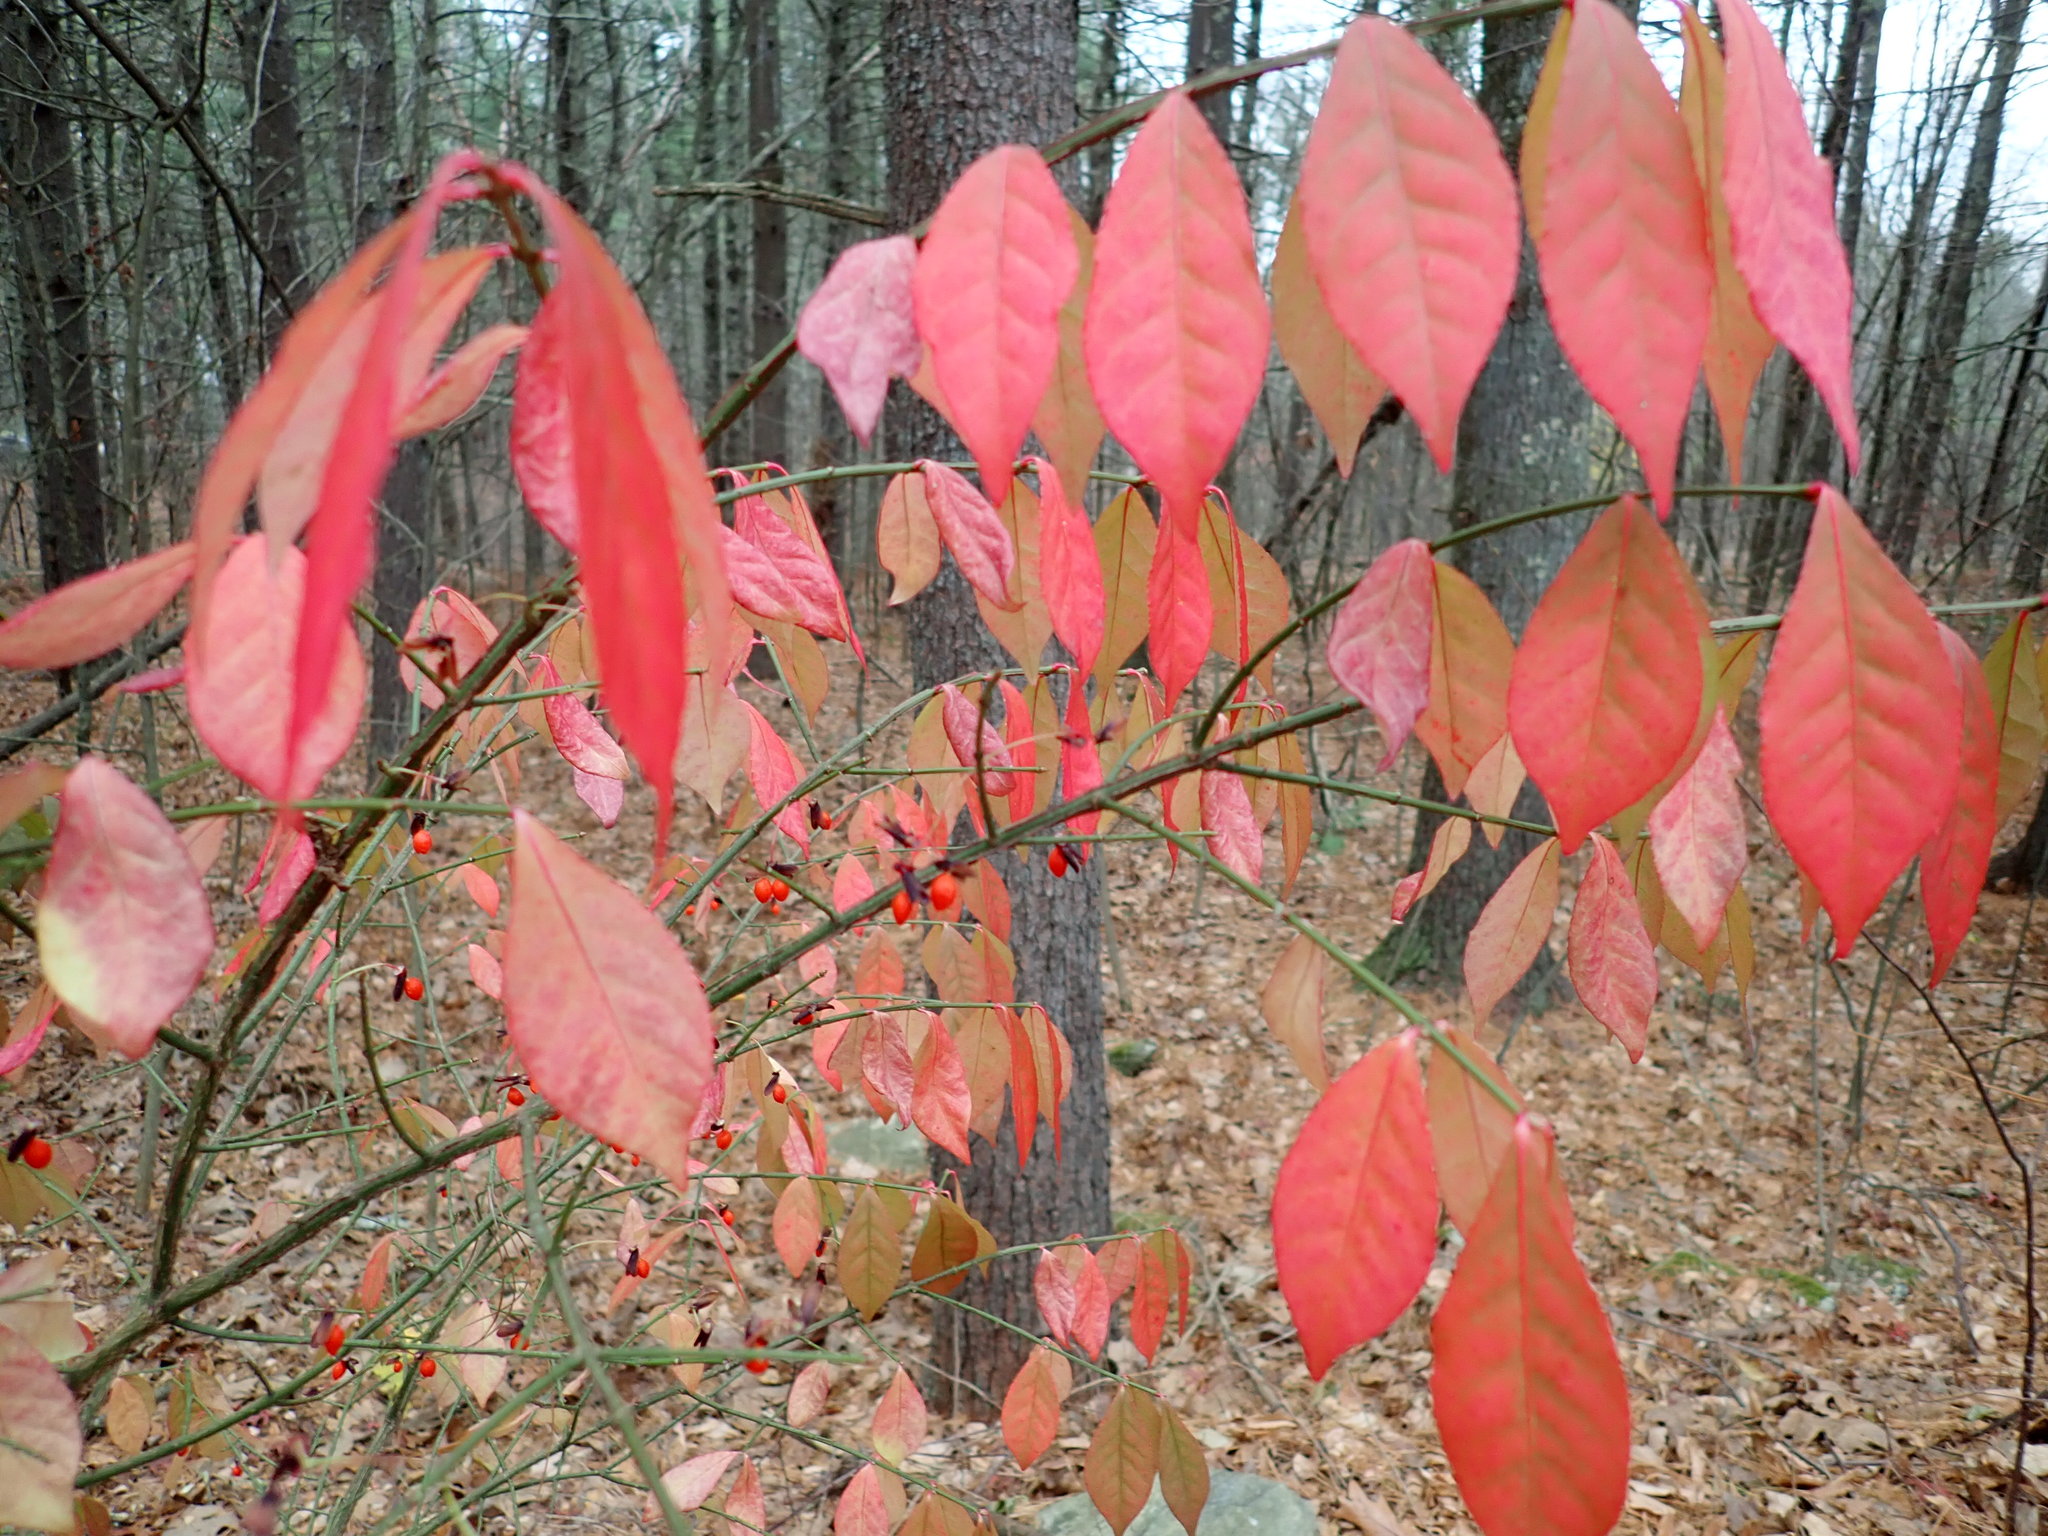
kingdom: Plantae
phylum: Tracheophyta
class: Magnoliopsida
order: Celastrales
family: Celastraceae
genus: Euonymus
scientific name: Euonymus alatus
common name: Winged euonymus
